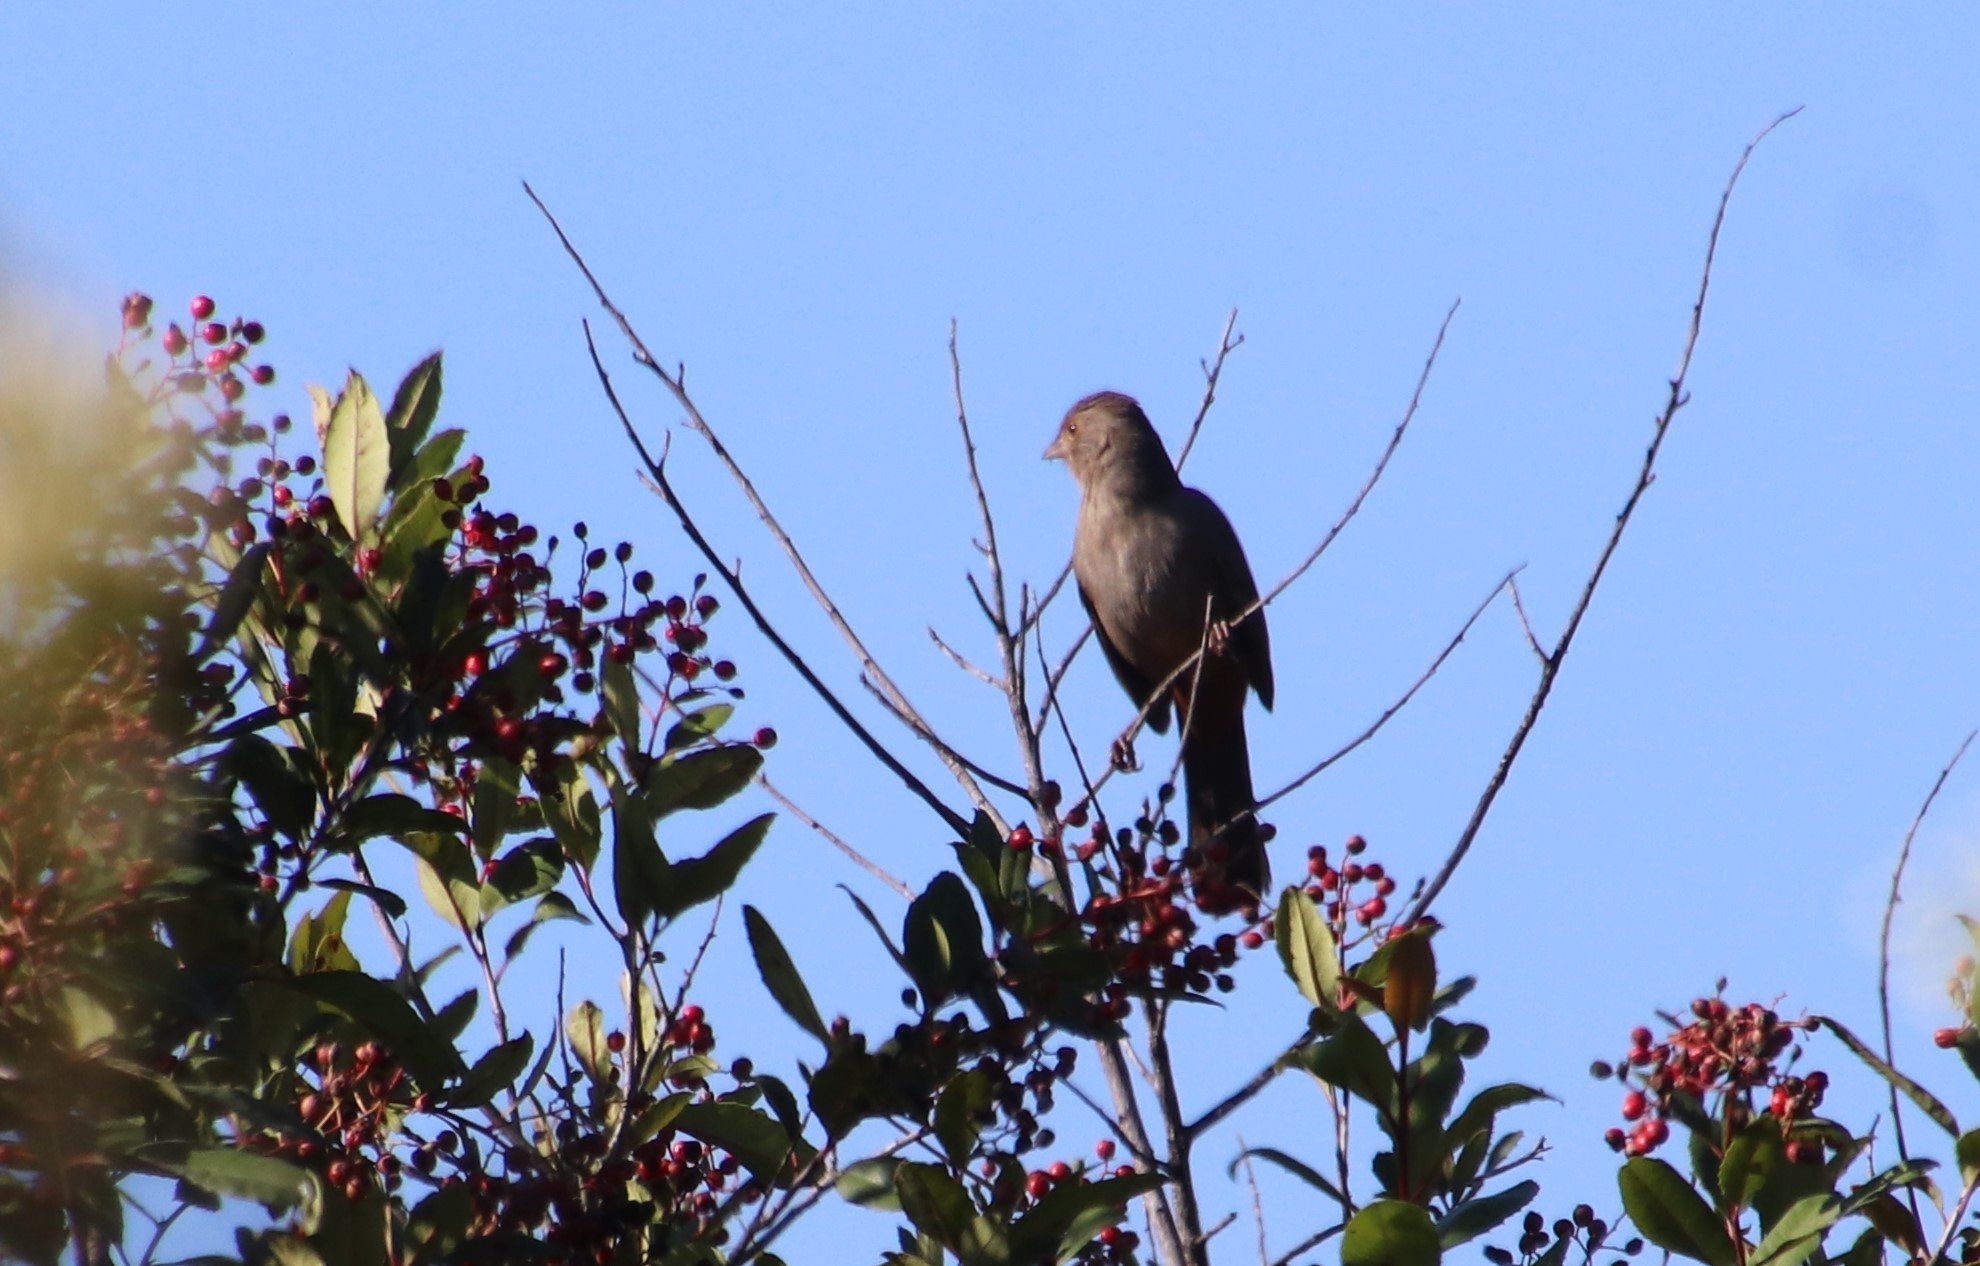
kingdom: Animalia
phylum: Chordata
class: Aves
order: Passeriformes
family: Passerellidae
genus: Melozone
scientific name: Melozone crissalis
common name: California towhee
